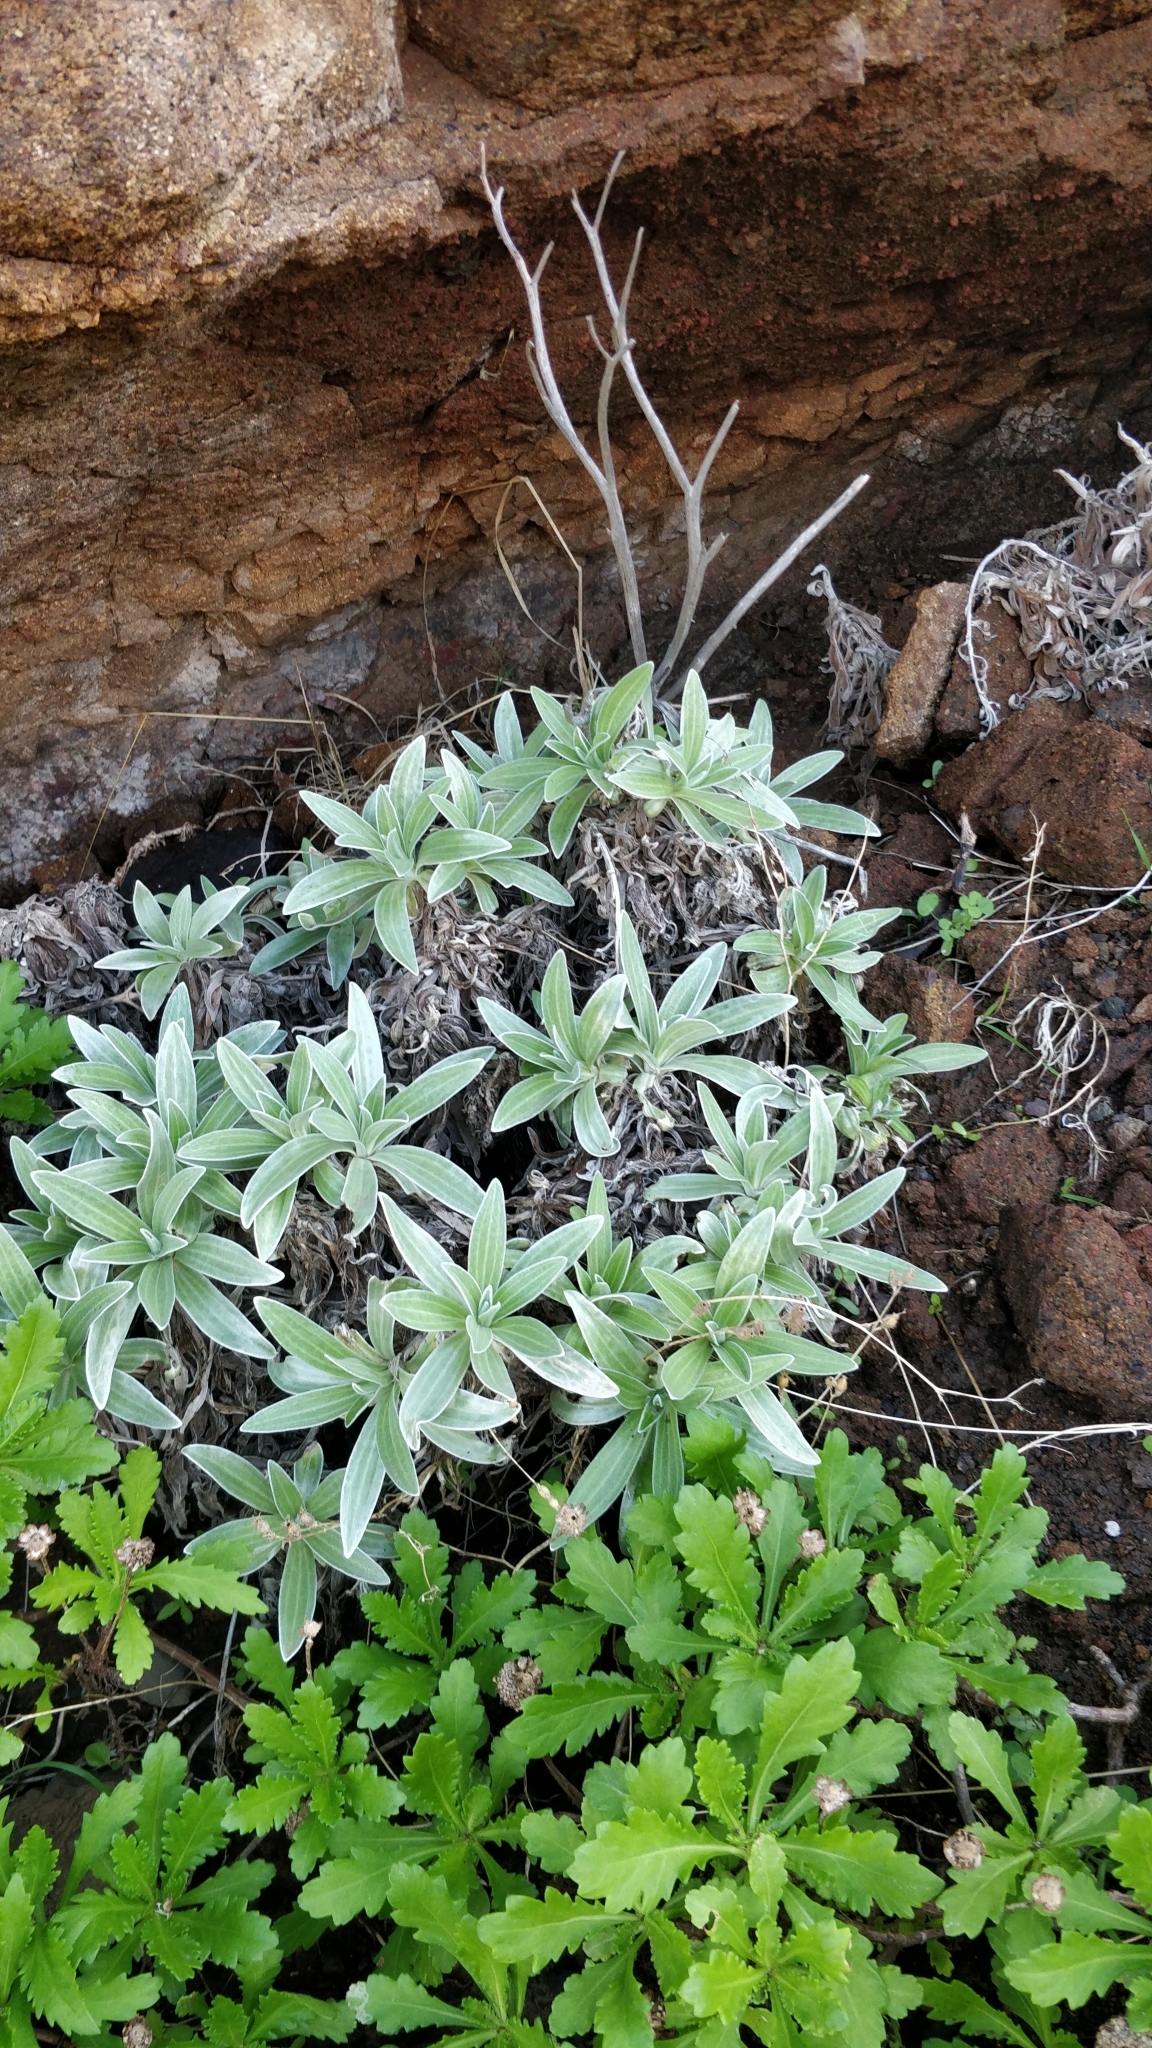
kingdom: Plantae
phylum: Tracheophyta
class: Magnoliopsida
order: Asterales
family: Asteraceae
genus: Helichrysum
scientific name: Helichrysum devium
